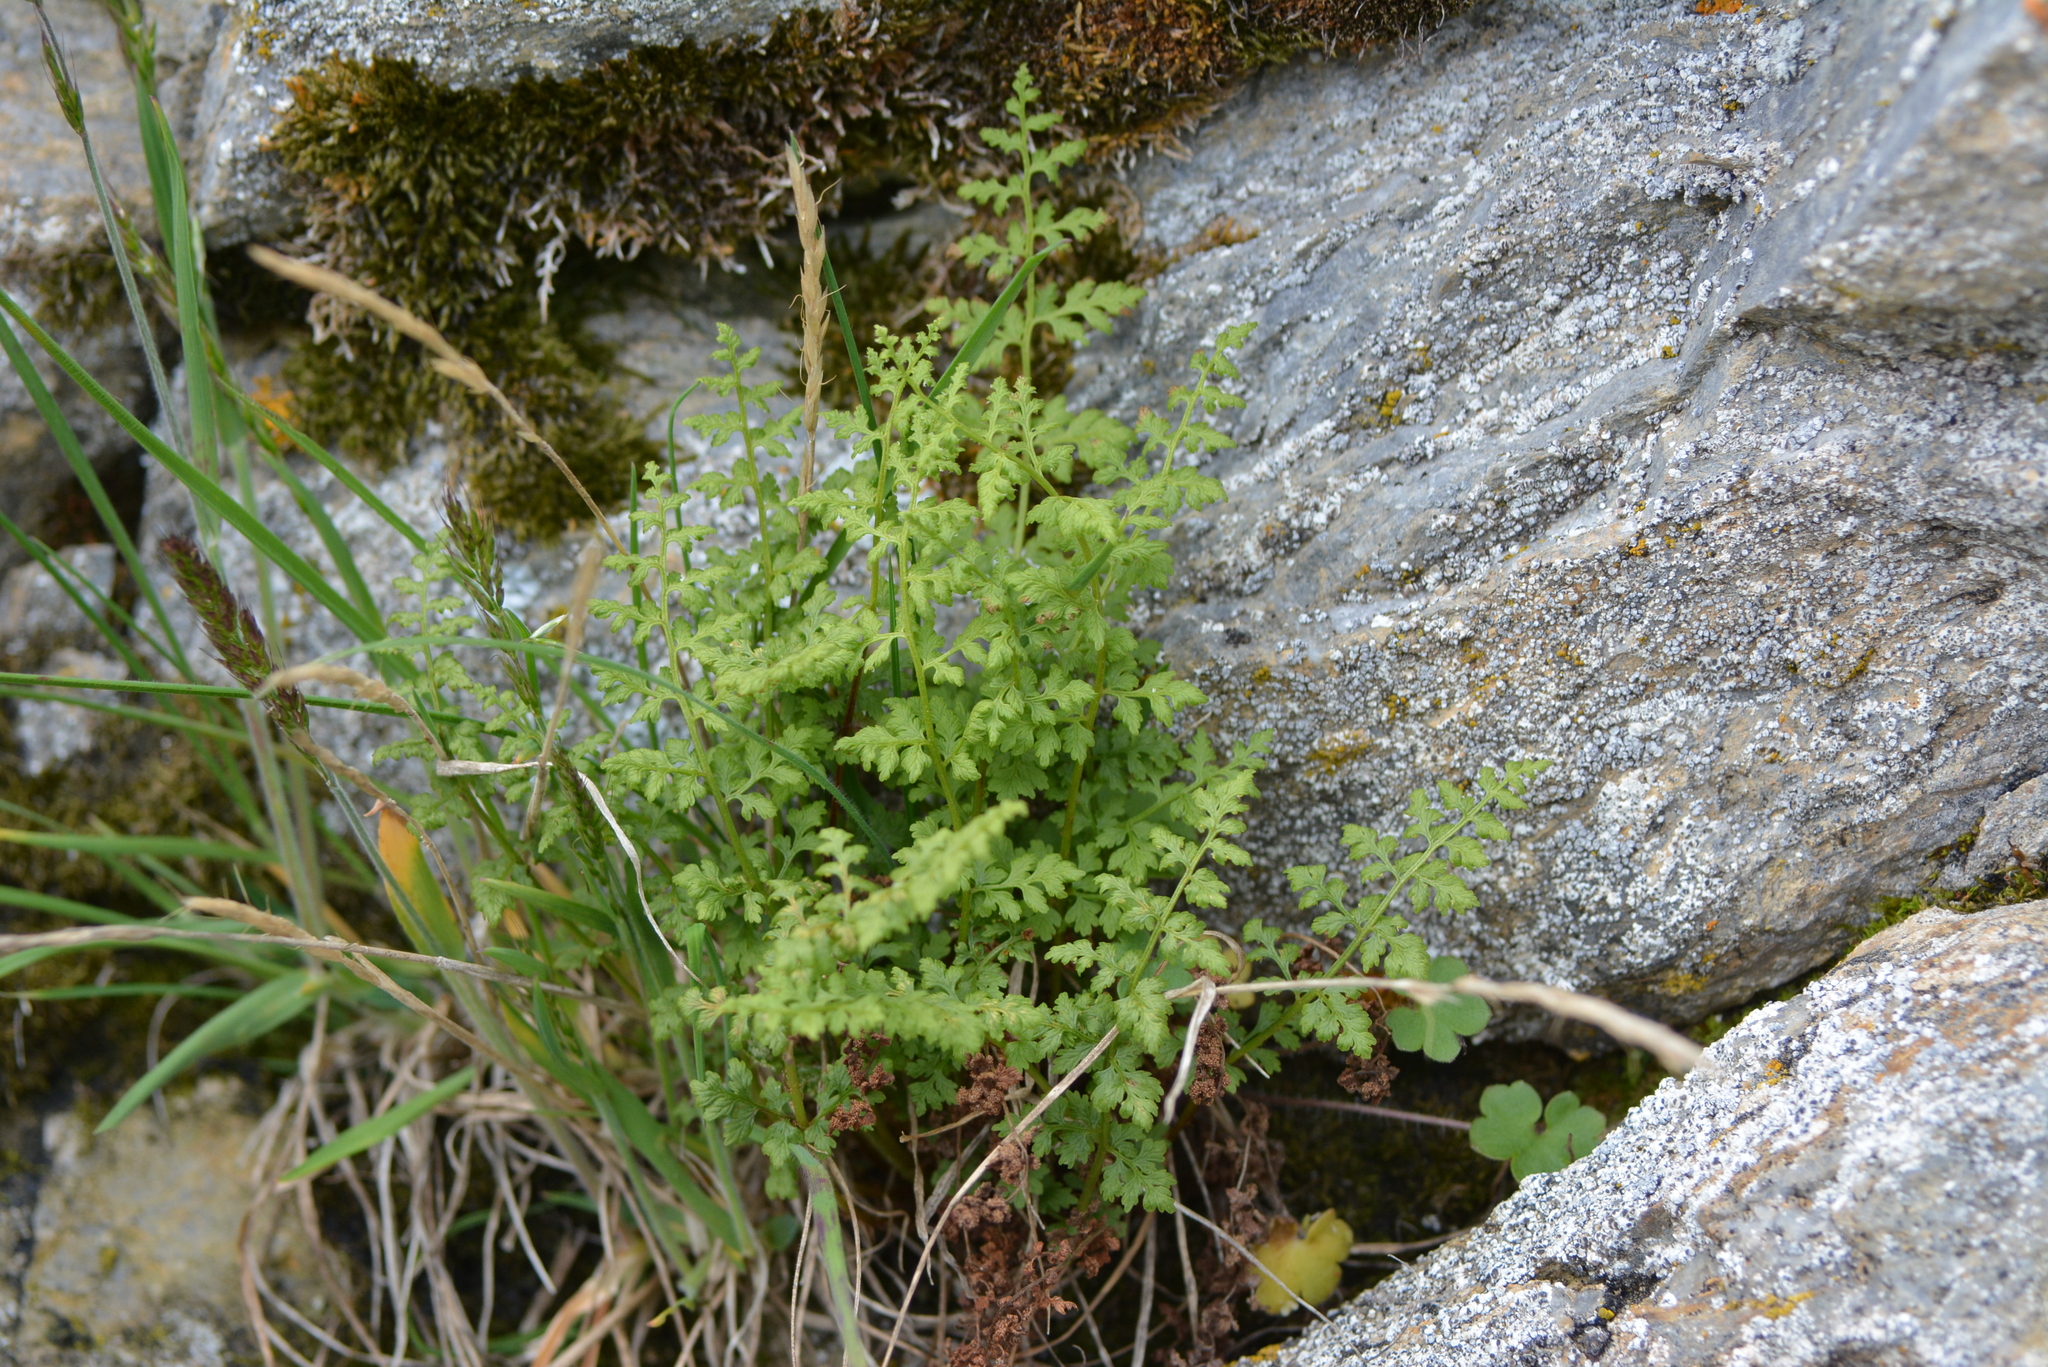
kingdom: Plantae
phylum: Tracheophyta
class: Polypodiopsida
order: Polypodiales
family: Cystopteridaceae
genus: Cystopteris
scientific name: Cystopteris fragilis
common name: Brittle bladder fern
